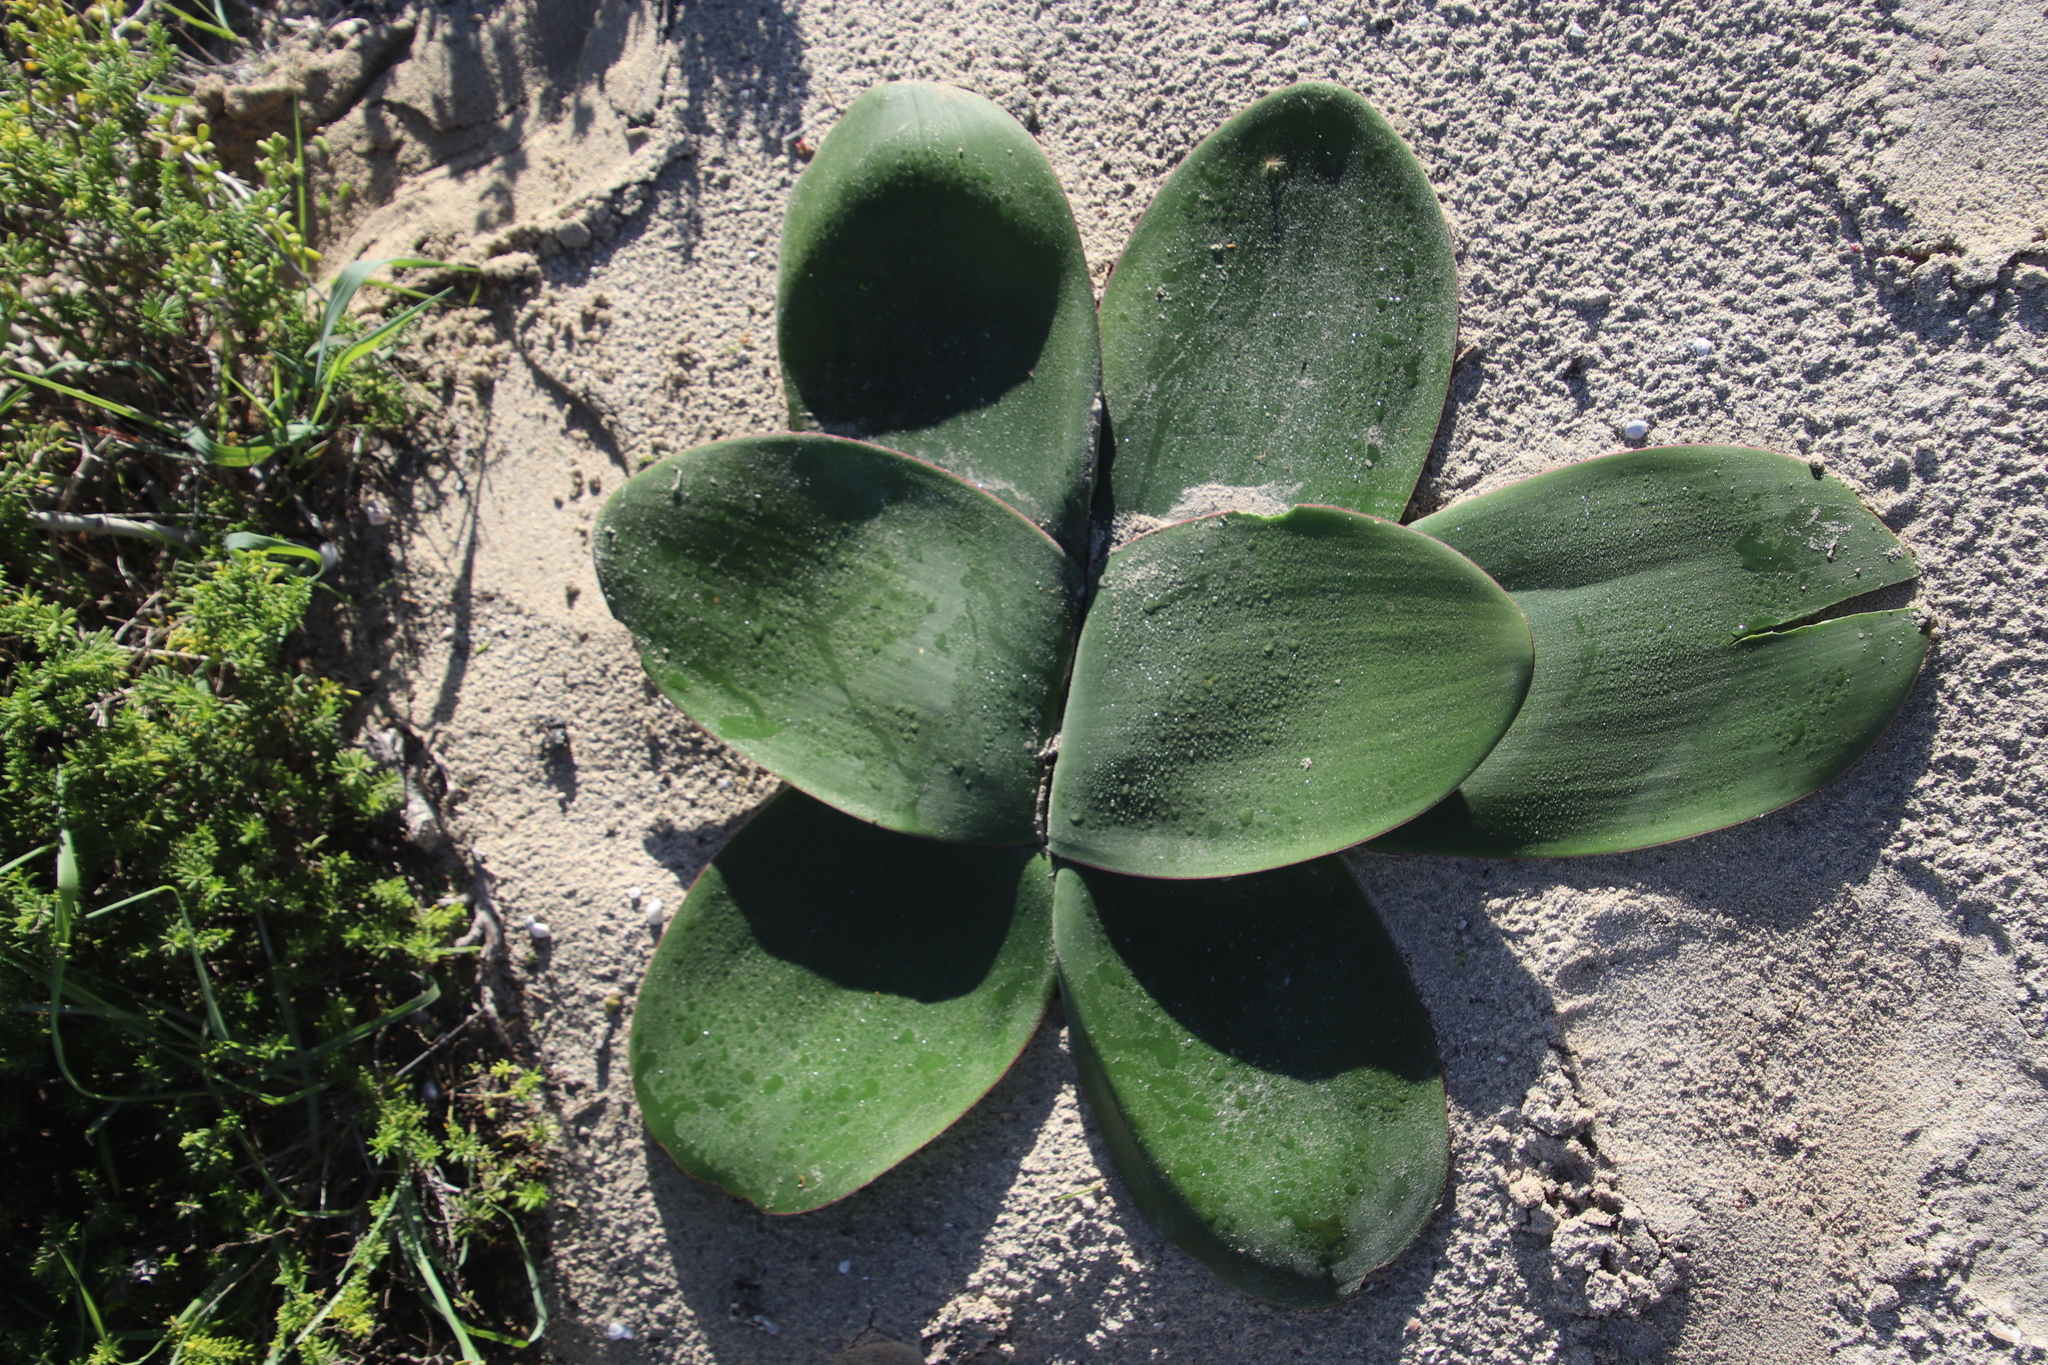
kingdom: Plantae
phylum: Tracheophyta
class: Liliopsida
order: Asparagales
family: Amaryllidaceae
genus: Brunsvigia
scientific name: Brunsvigia orientalis
